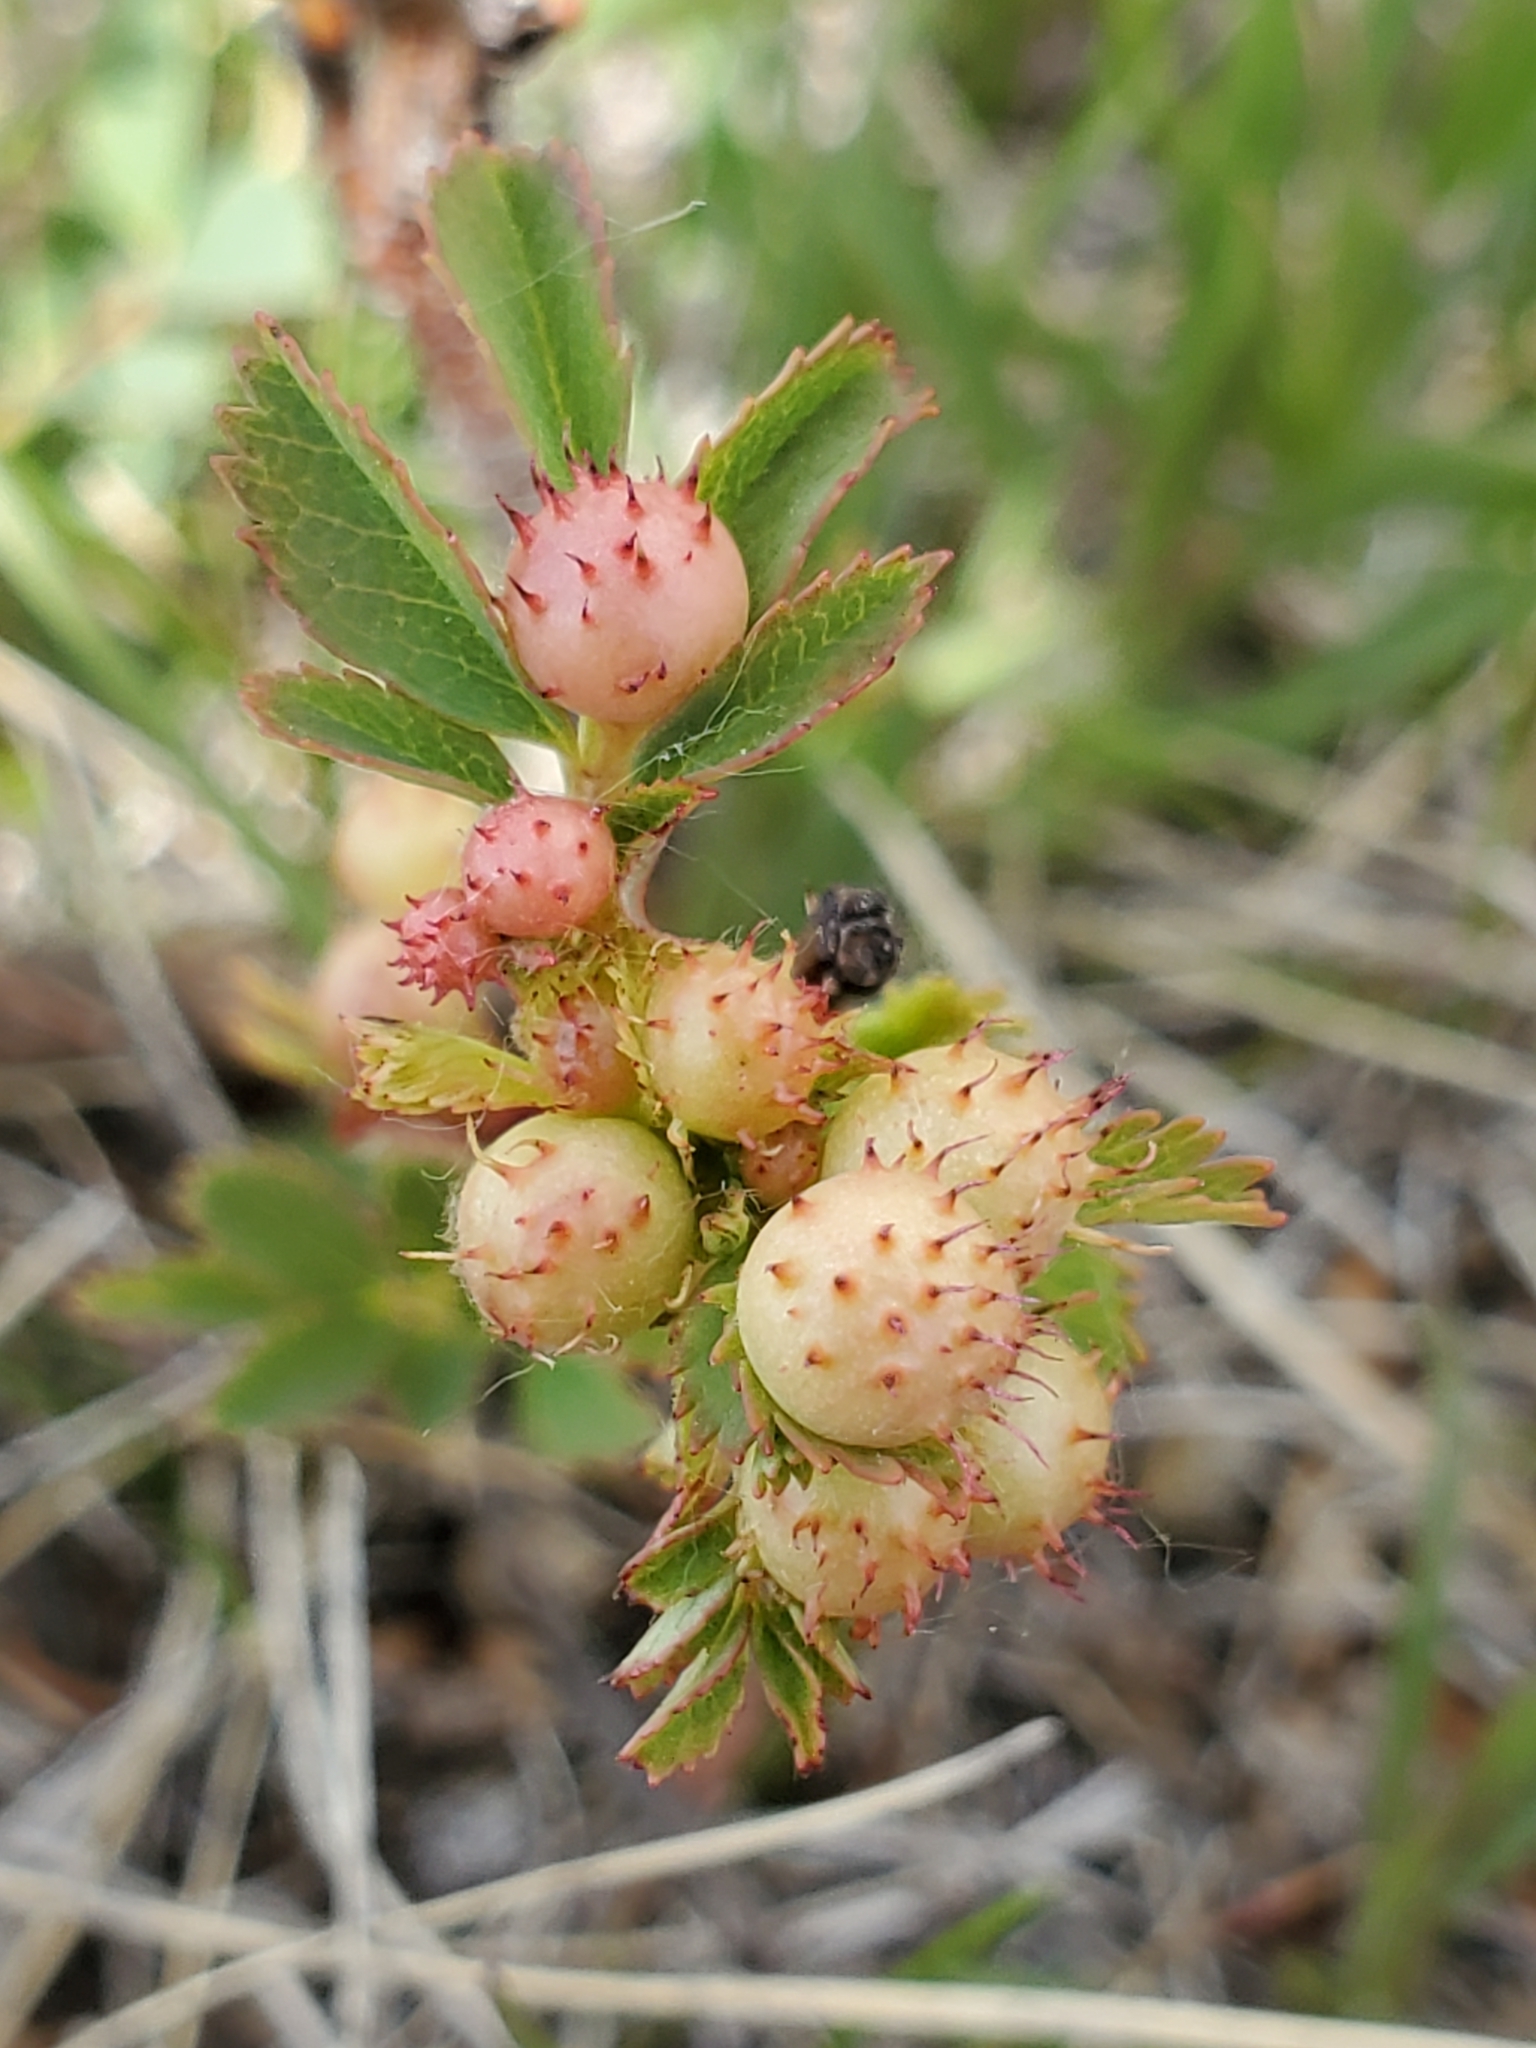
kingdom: Animalia
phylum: Arthropoda
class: Insecta
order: Hymenoptera
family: Cynipidae
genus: Diplolepis
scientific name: Diplolepis polita
